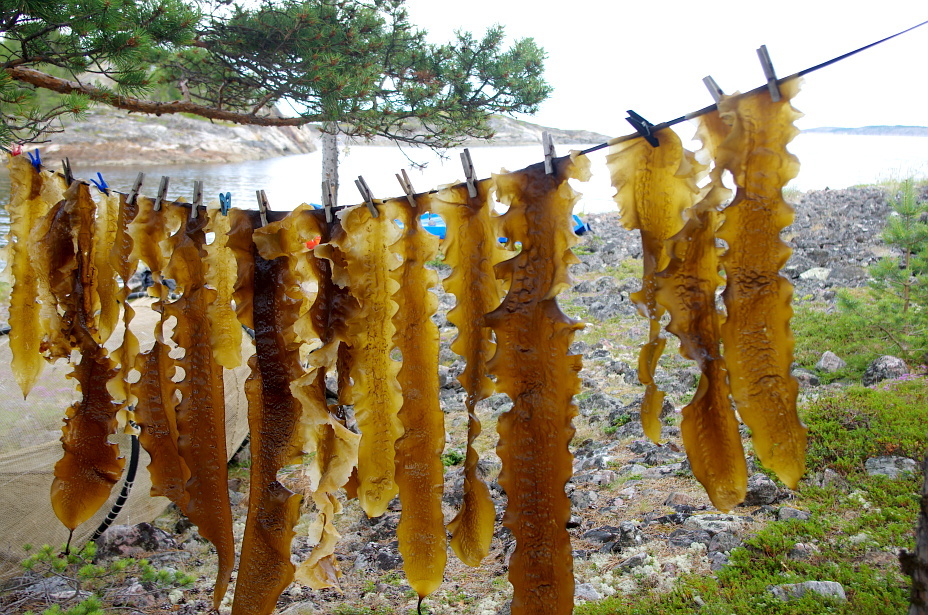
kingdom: Chromista
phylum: Ochrophyta
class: Phaeophyceae
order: Laminariales
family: Laminariaceae
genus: Saccharina
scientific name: Saccharina latissima
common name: Poor man's weather glass
